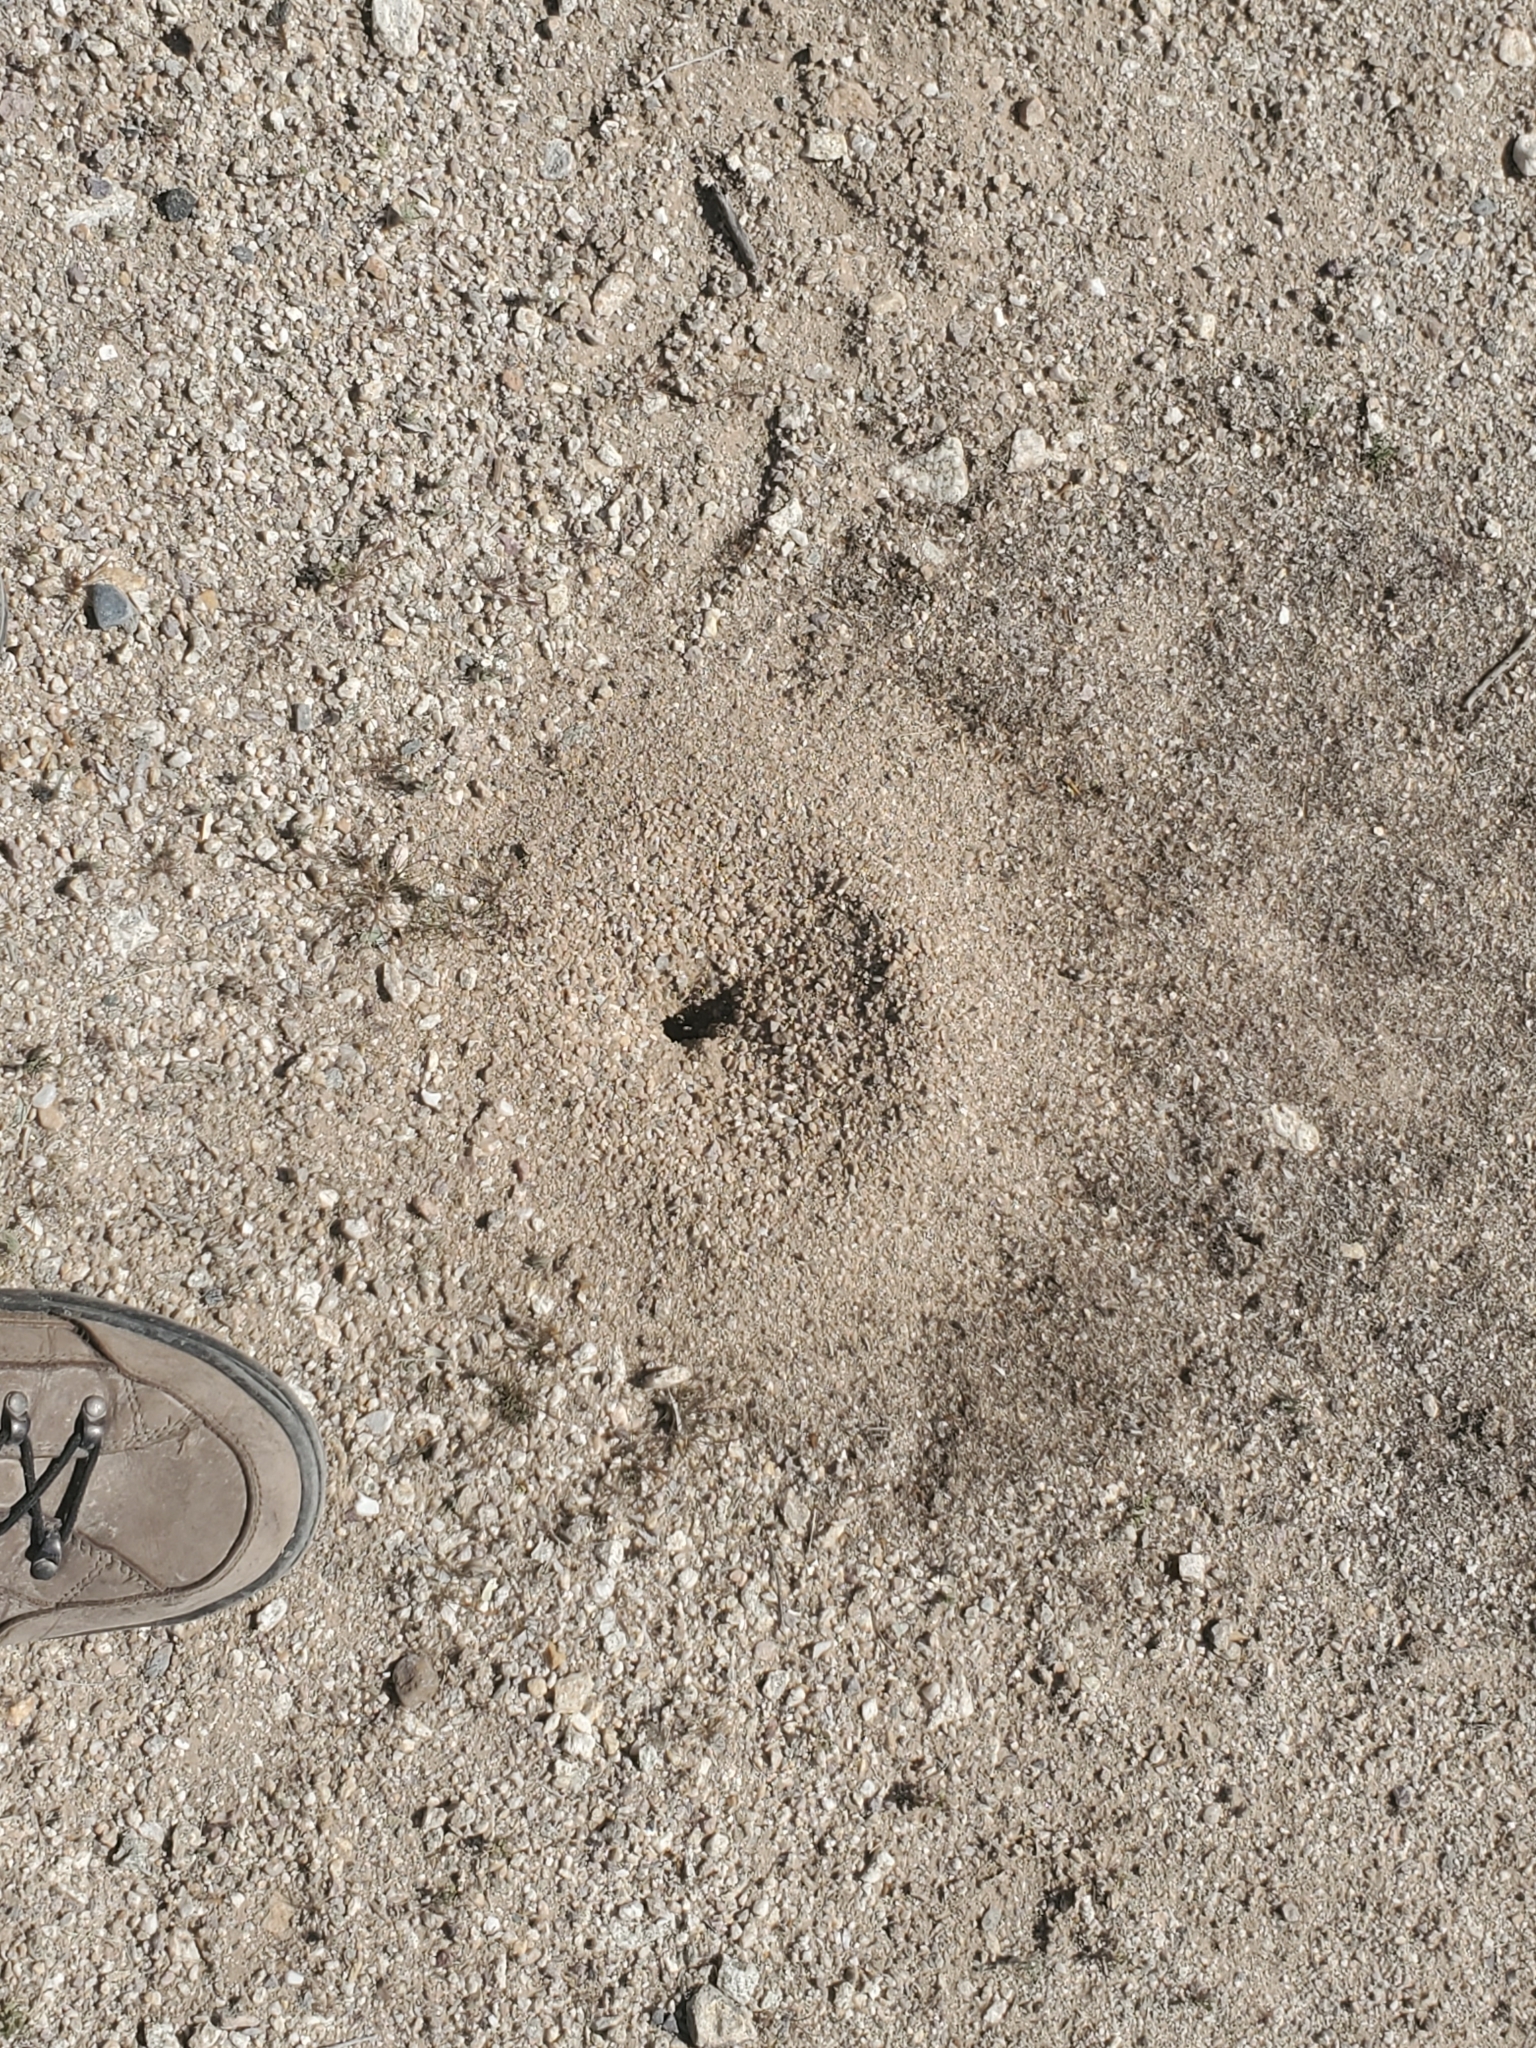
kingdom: Animalia
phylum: Arthropoda
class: Insecta
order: Hymenoptera
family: Formicidae
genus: Messor
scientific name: Messor pergandei
